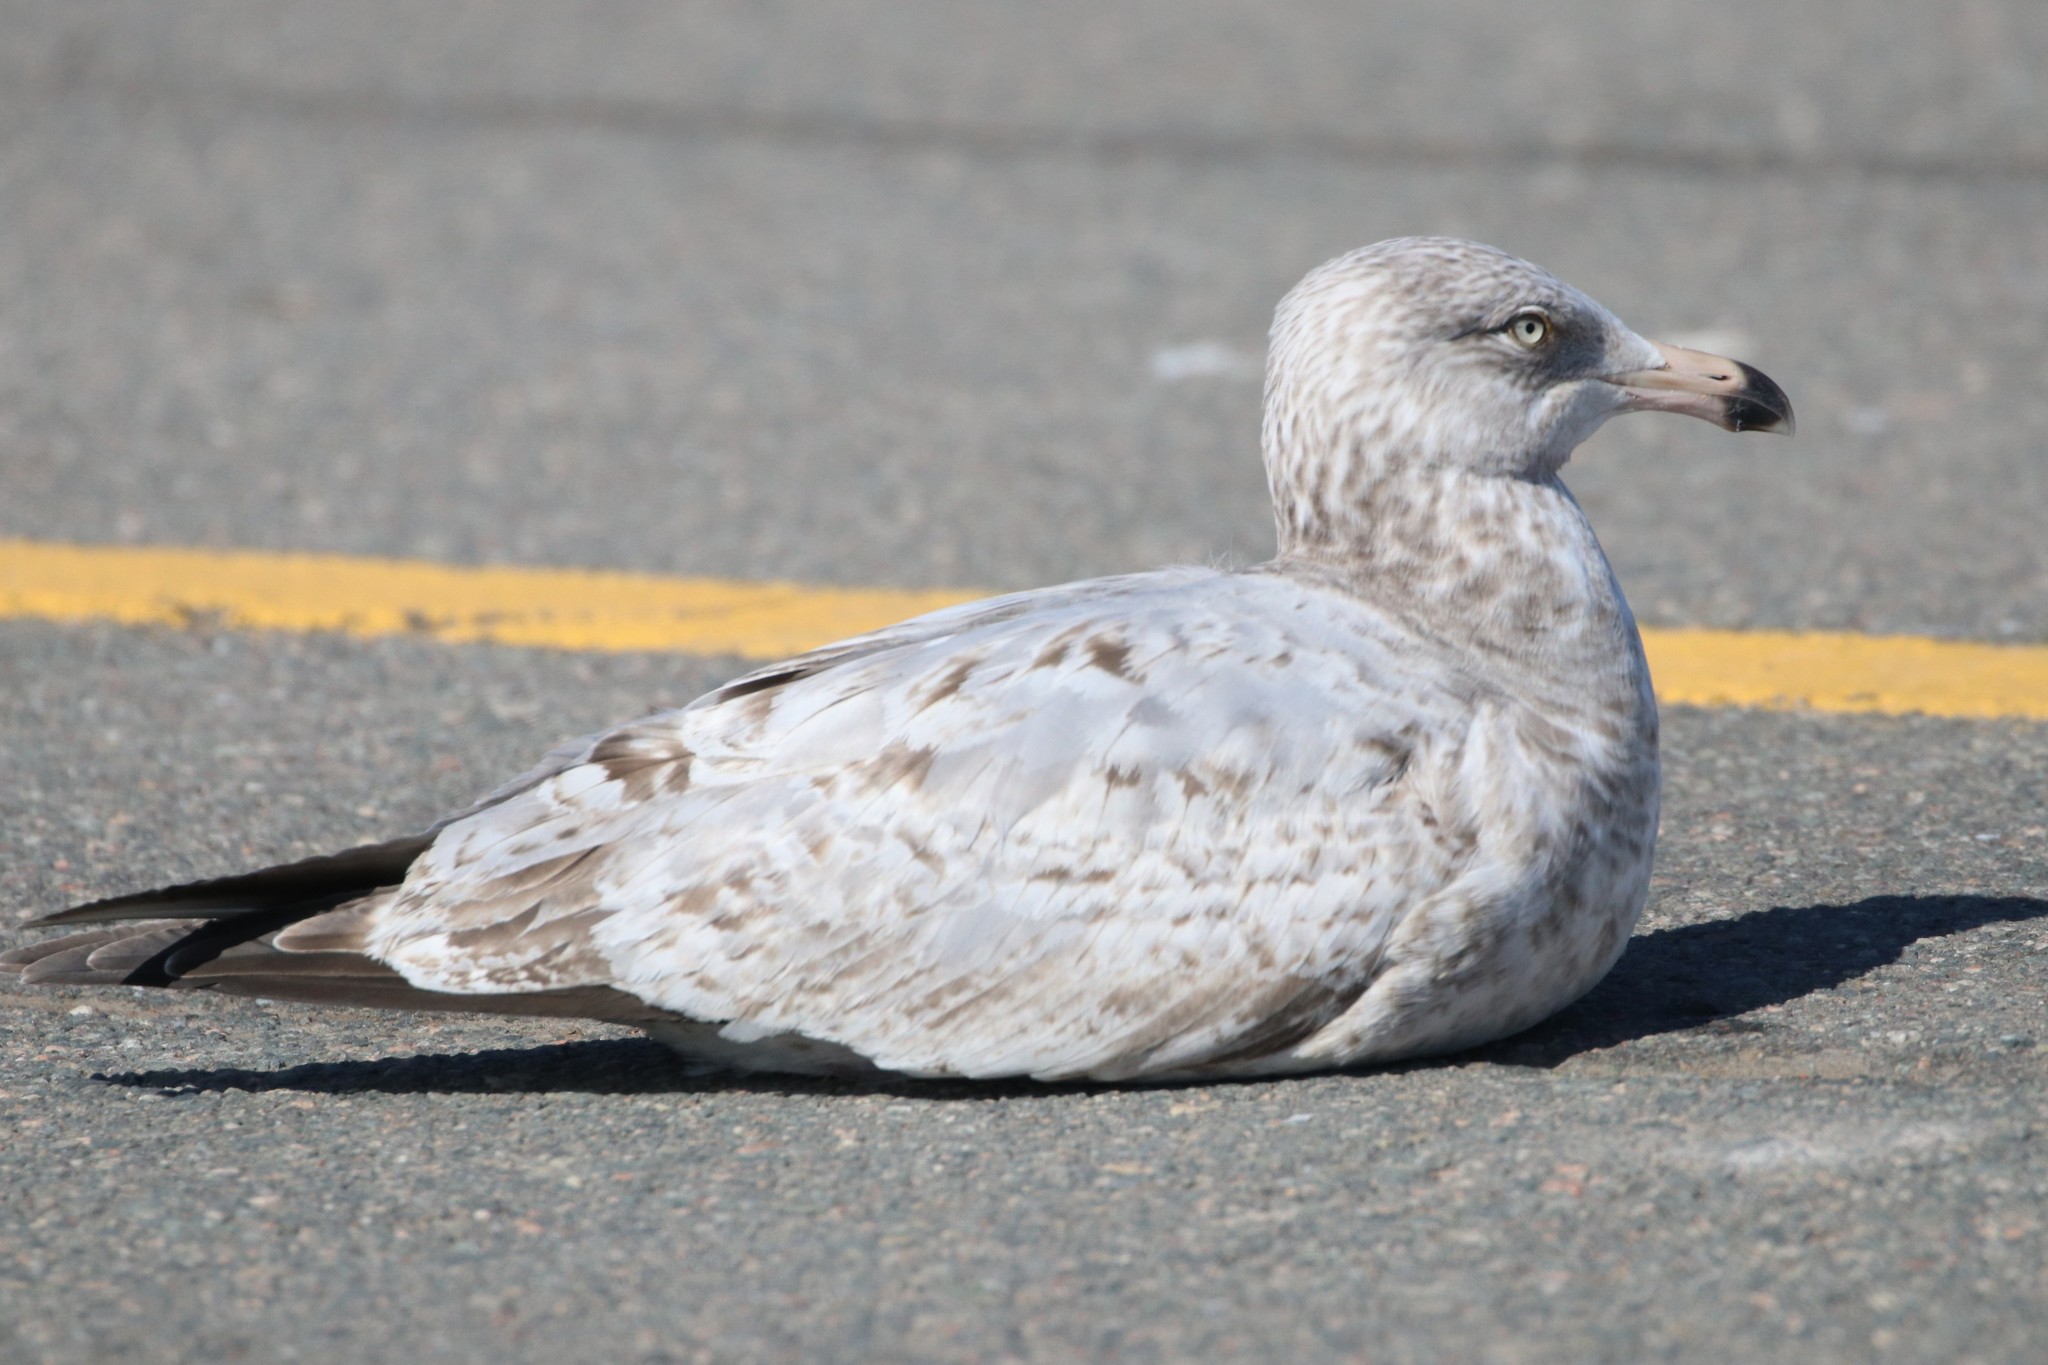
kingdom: Animalia
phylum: Chordata
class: Aves
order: Charadriiformes
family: Laridae
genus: Larus
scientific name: Larus argentatus
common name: Herring gull
